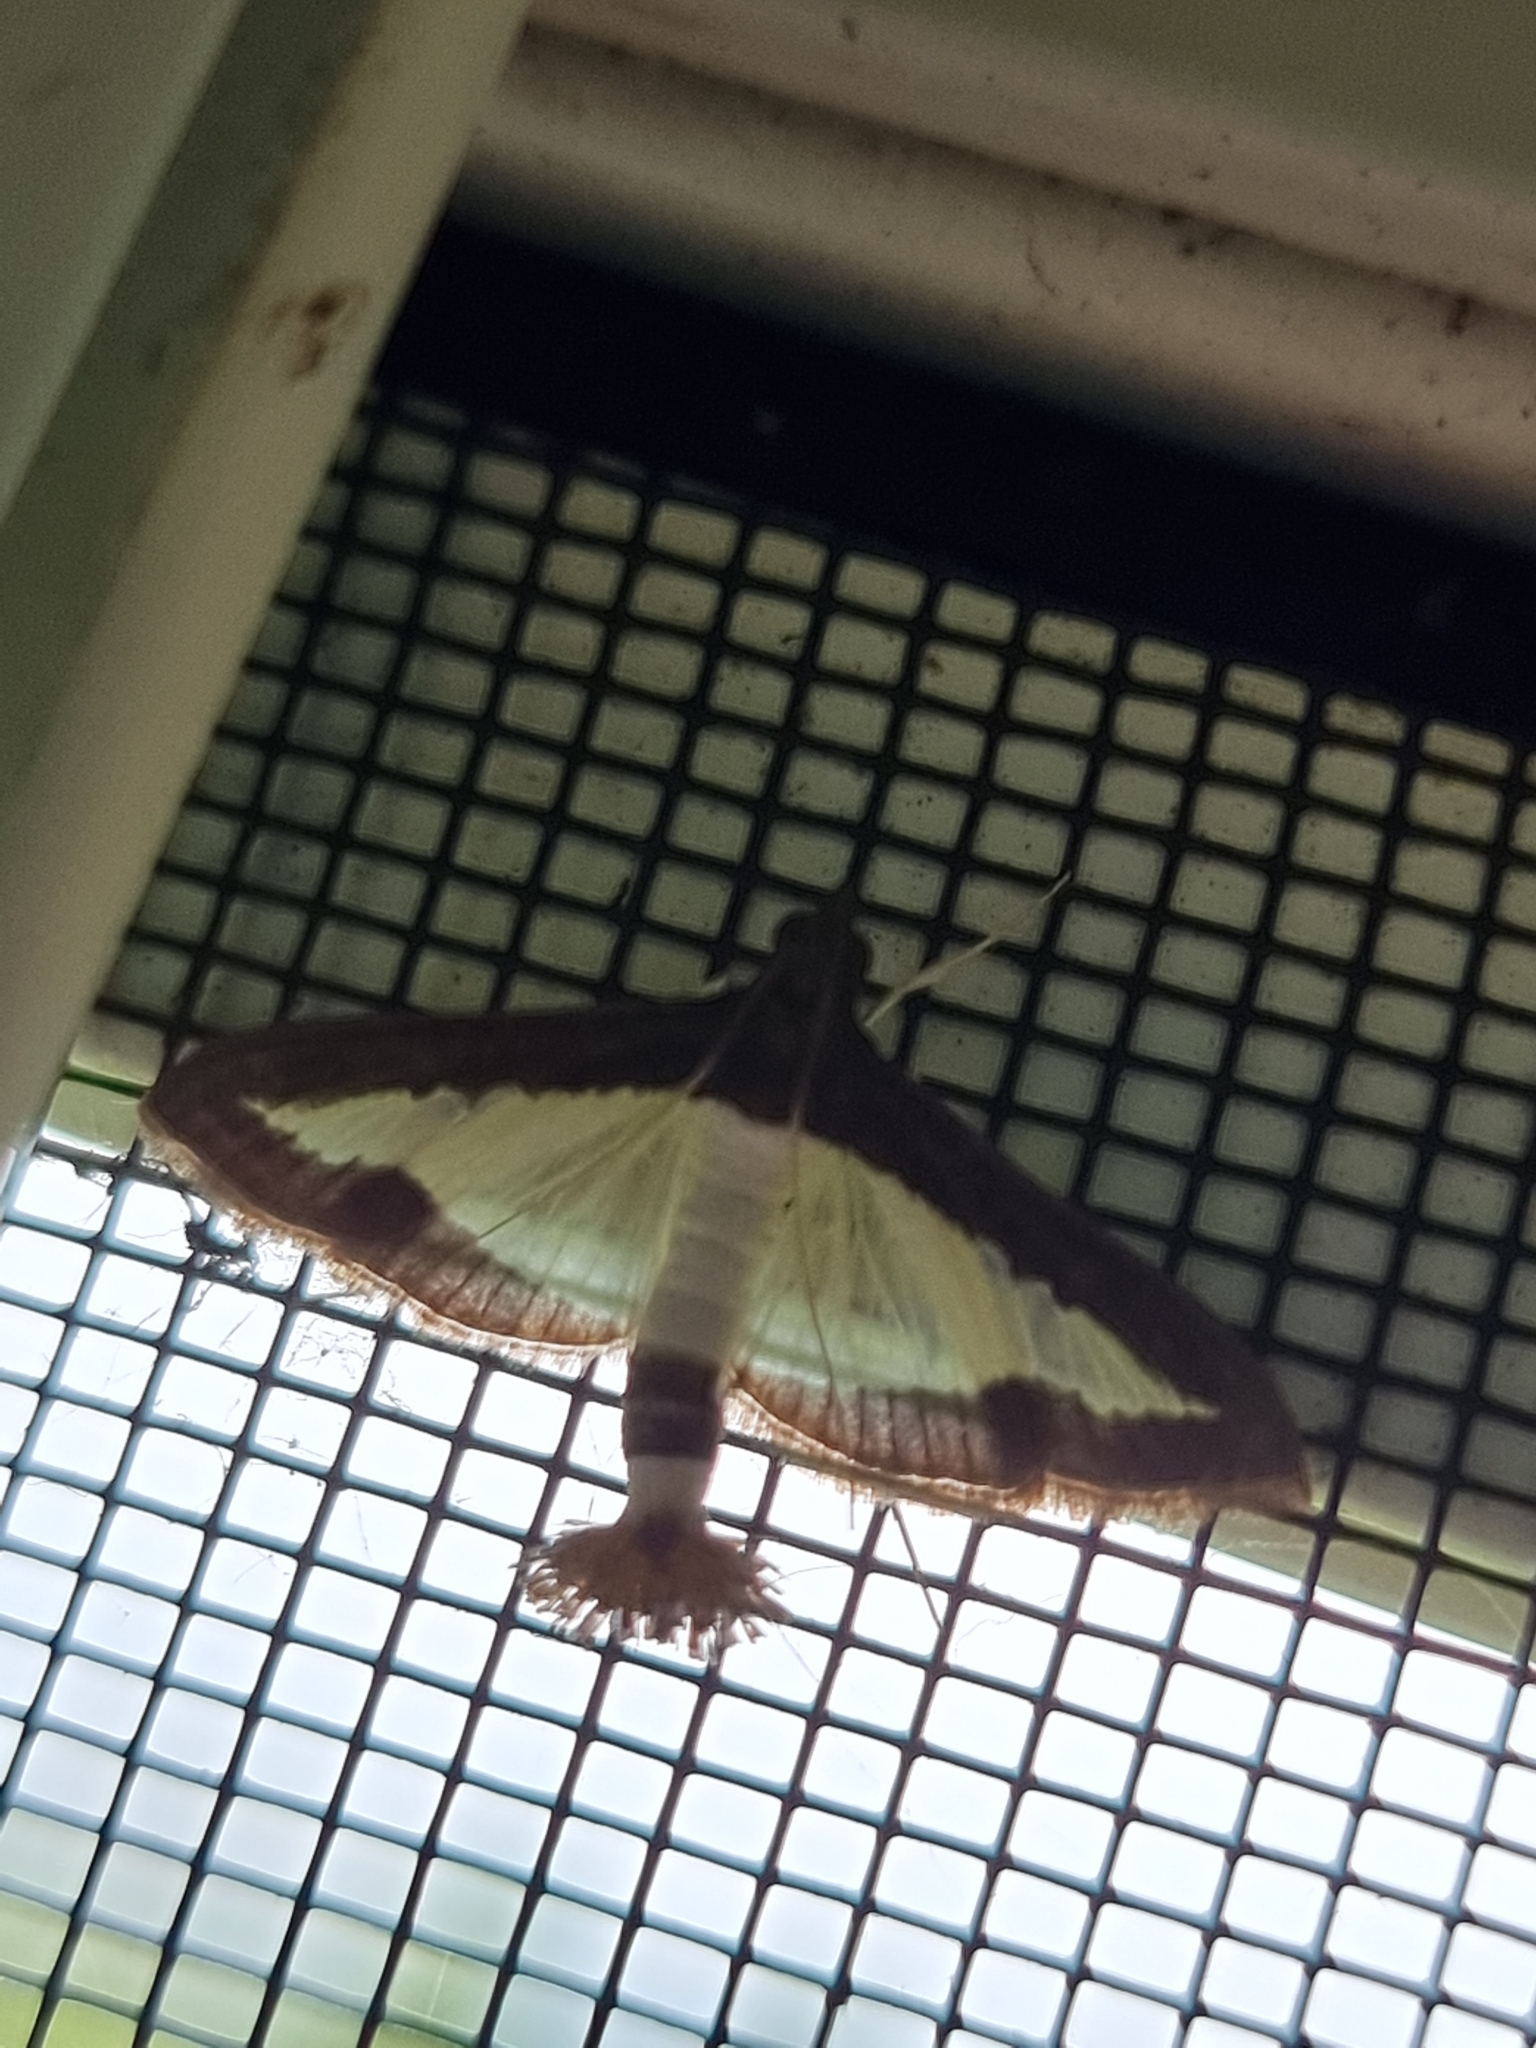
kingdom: Animalia
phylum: Arthropoda
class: Insecta
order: Lepidoptera
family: Crambidae
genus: Diaphania
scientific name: Diaphania indica
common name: Cucumber moth
